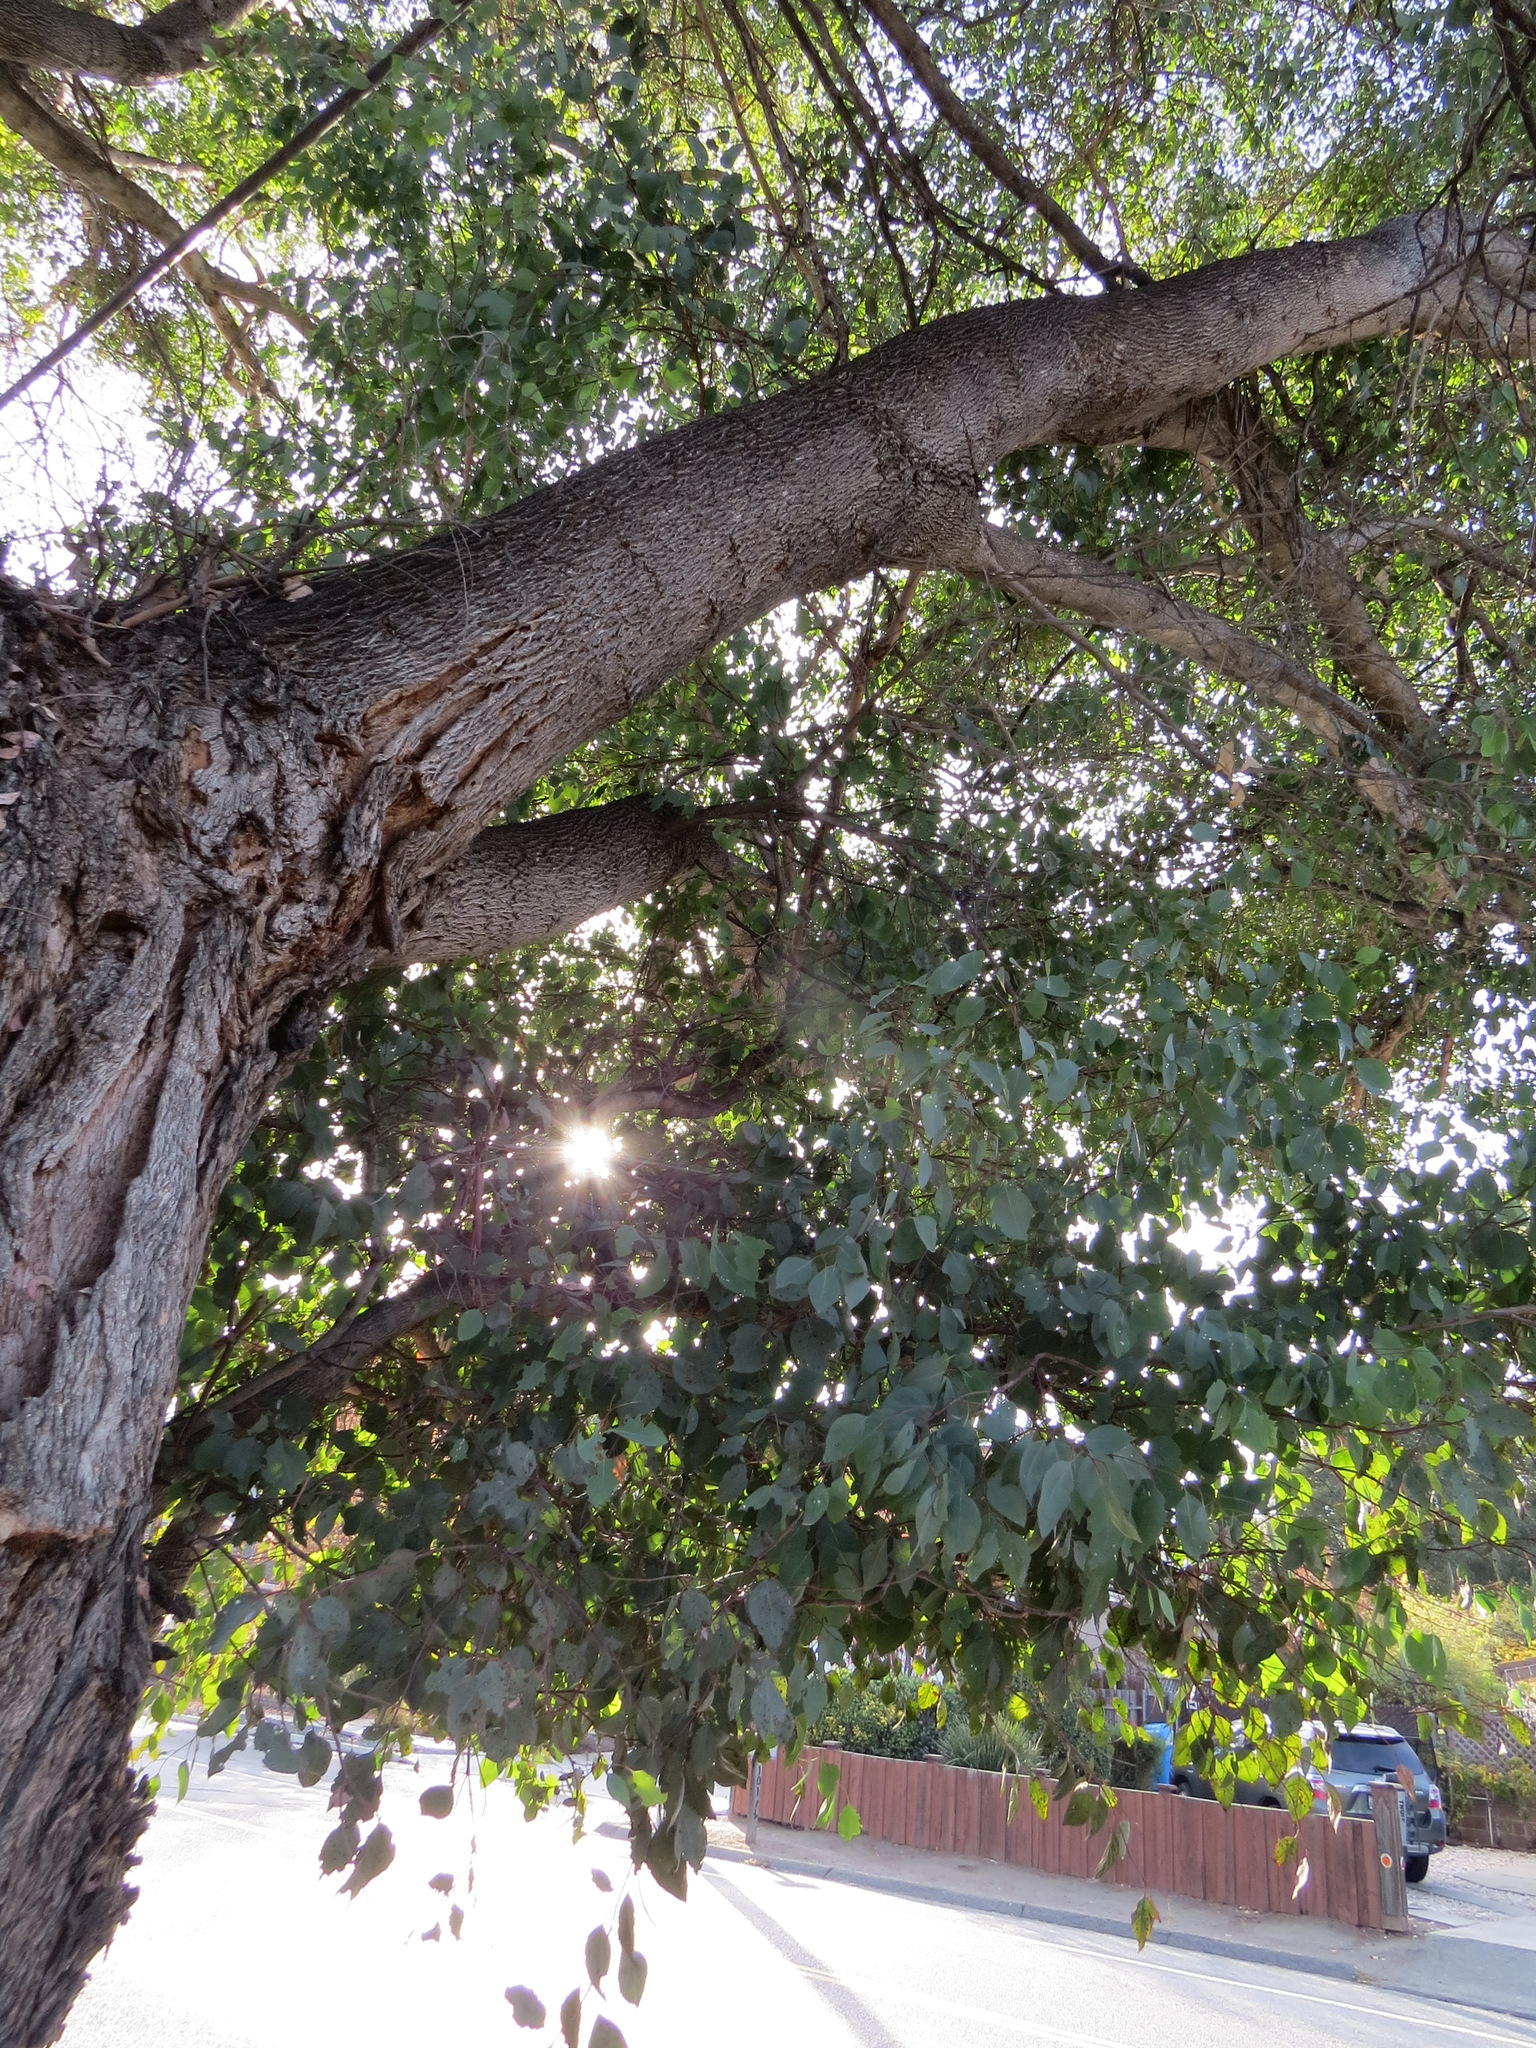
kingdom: Animalia
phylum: Arthropoda
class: Insecta
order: Hemiptera
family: Aphalaridae
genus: Glycaspis
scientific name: Glycaspis brimblecombei
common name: Red gum lerp psyllid
